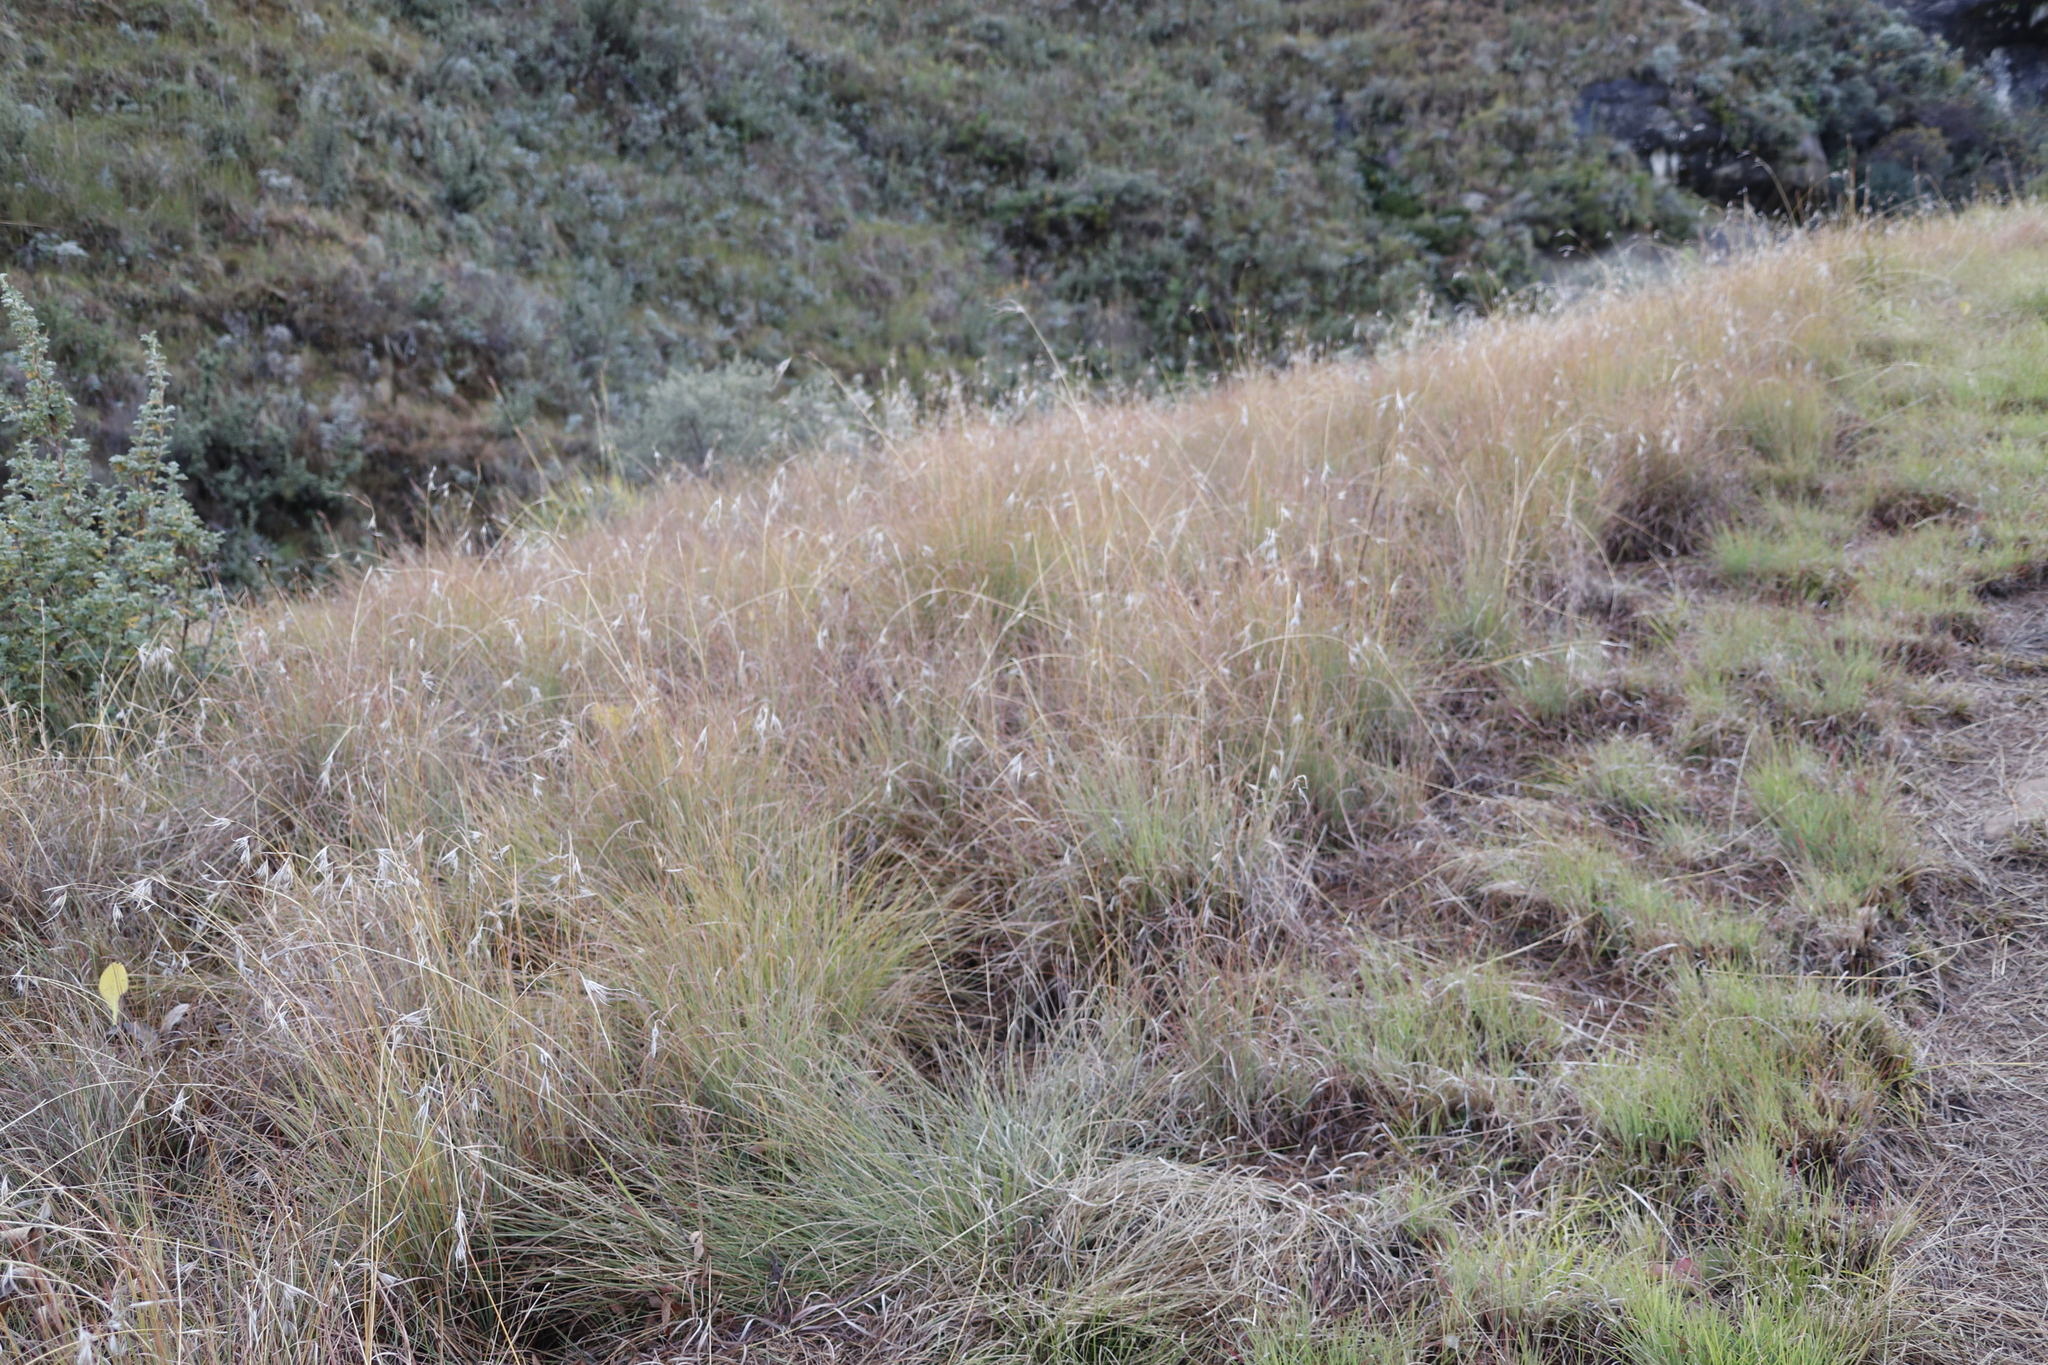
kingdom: Plantae
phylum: Tracheophyta
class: Liliopsida
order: Poales
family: Poaceae
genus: Themeda
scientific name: Themeda triandra
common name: Kangaroo grass
